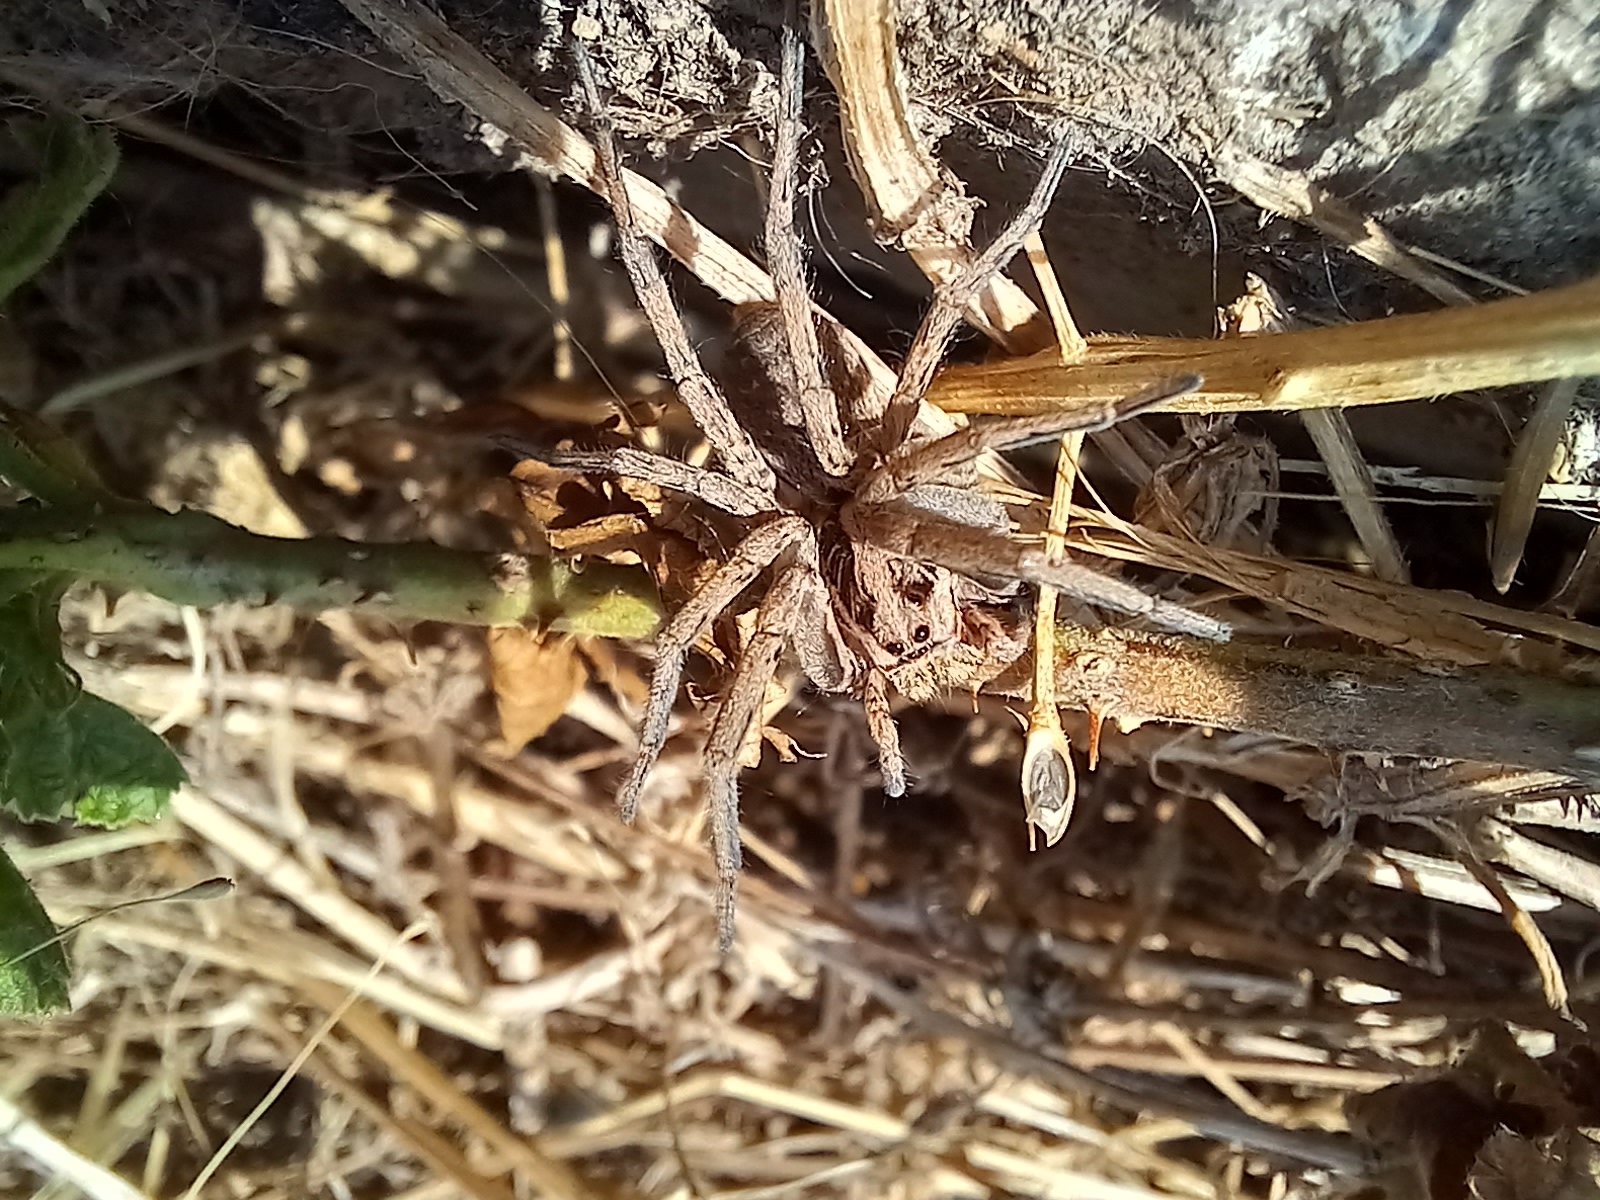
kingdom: Animalia
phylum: Arthropoda
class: Arachnida
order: Araneae
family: Lycosidae
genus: Hogna
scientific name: Hogna radiata
